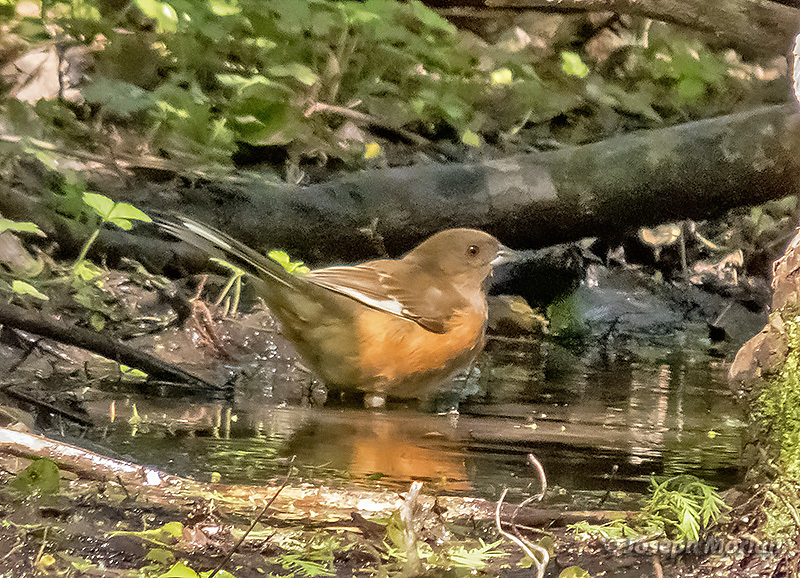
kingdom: Animalia
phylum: Chordata
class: Aves
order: Passeriformes
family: Passerellidae
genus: Pipilo
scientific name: Pipilo erythrophthalmus
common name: Eastern towhee
